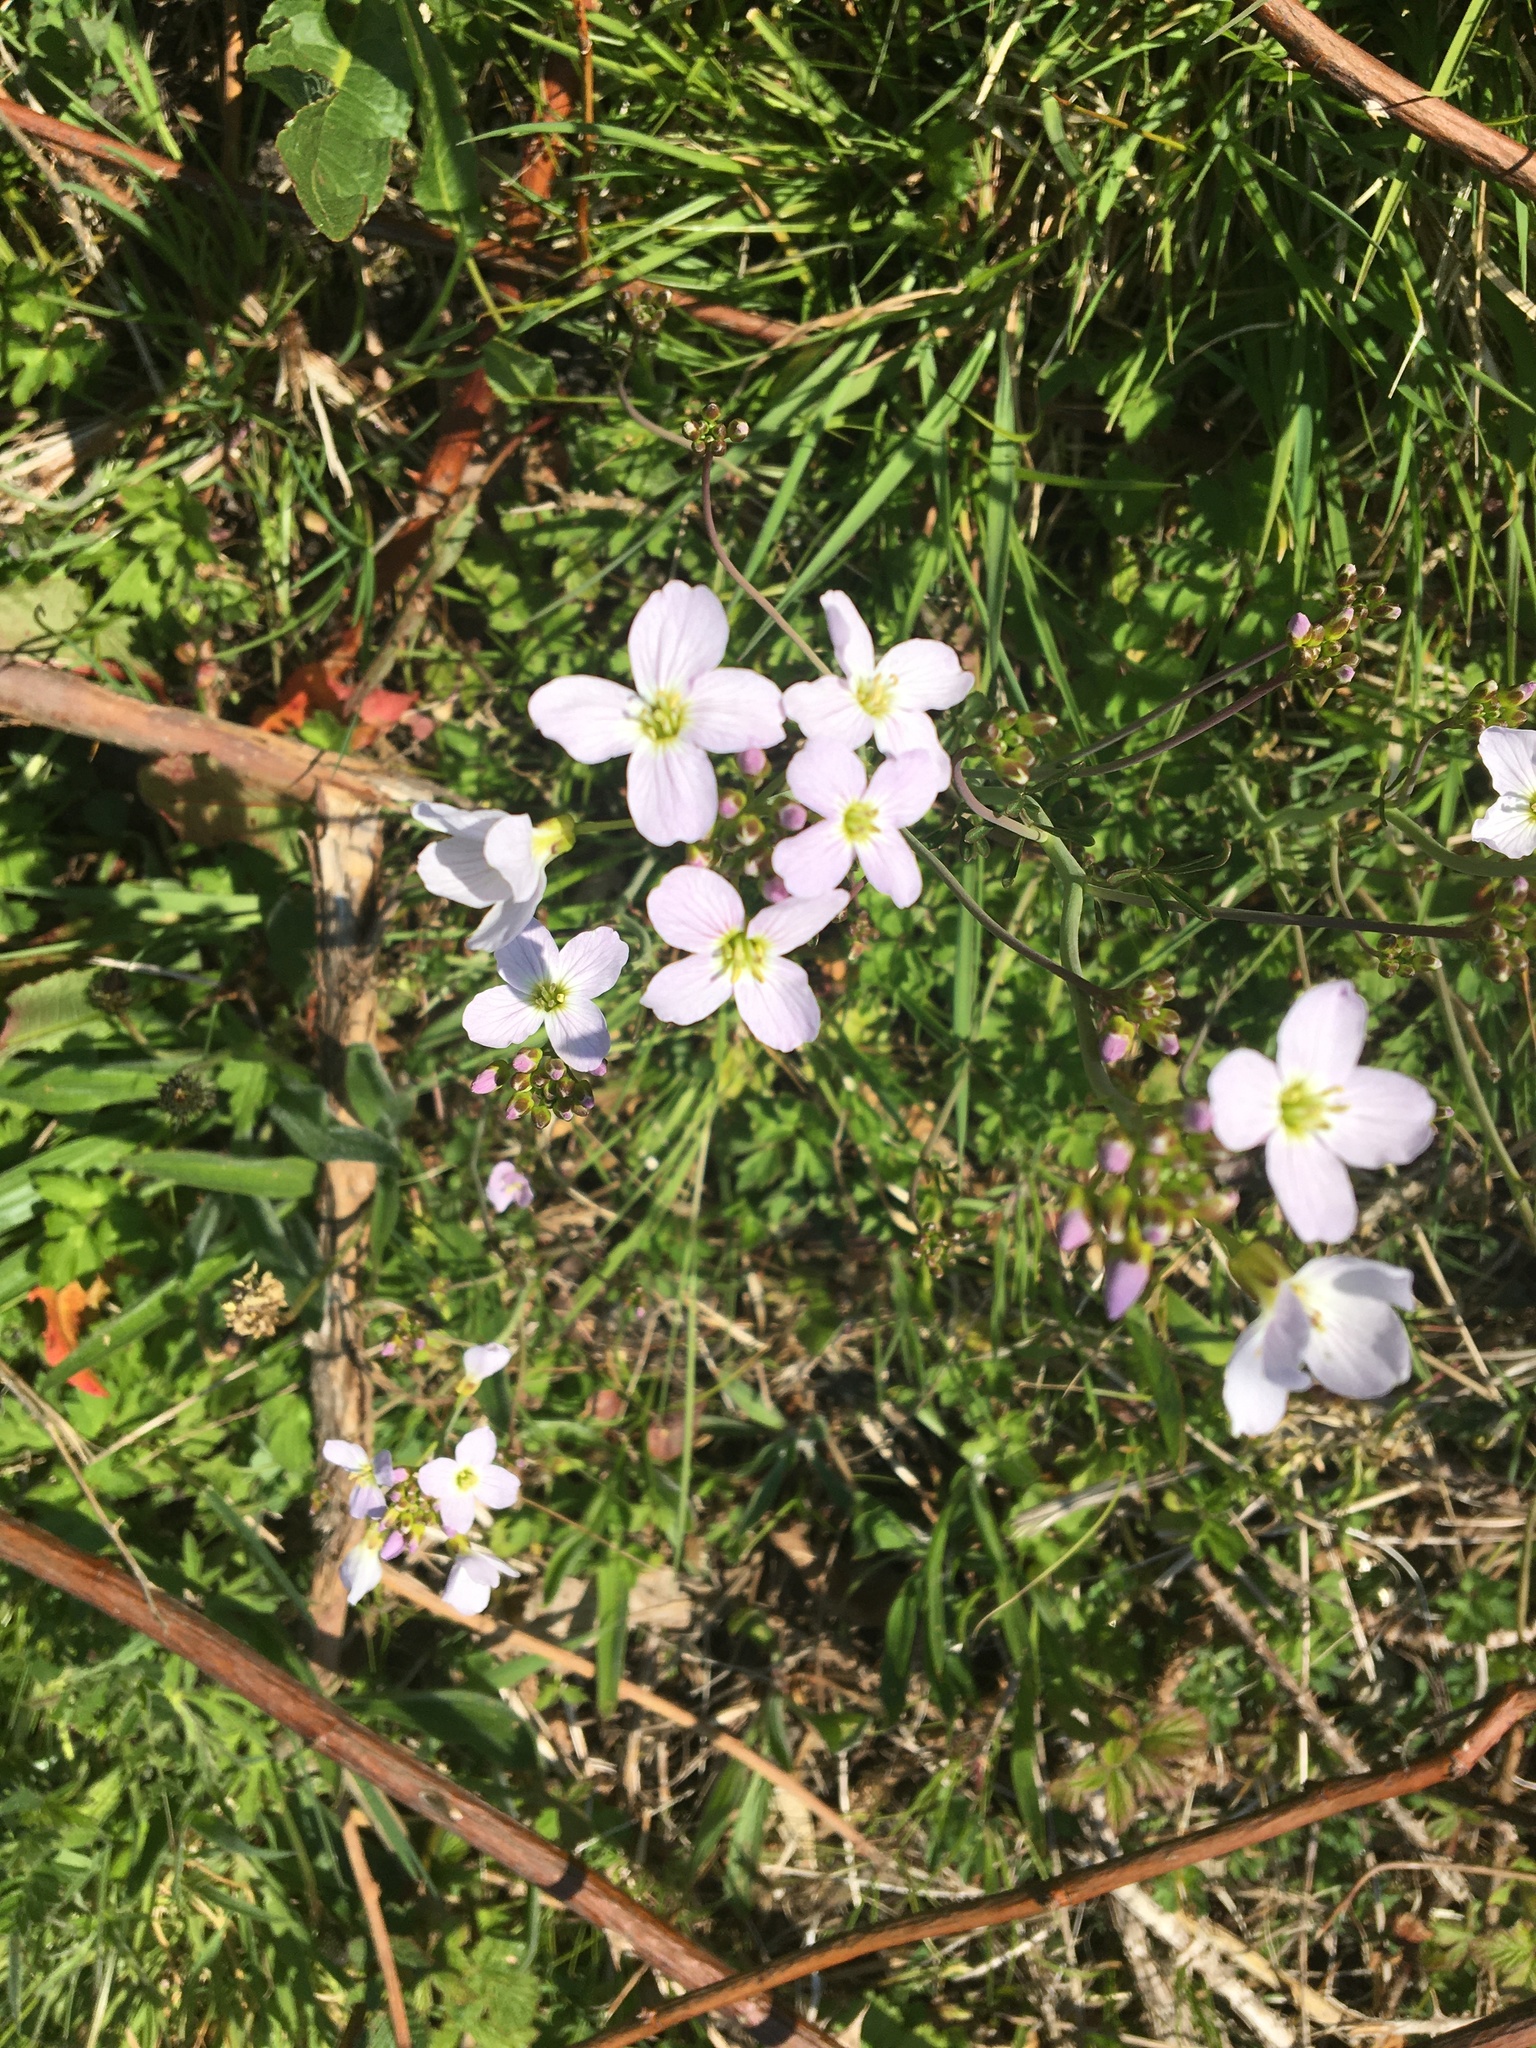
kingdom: Plantae
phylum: Tracheophyta
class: Magnoliopsida
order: Brassicales
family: Brassicaceae
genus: Cardamine
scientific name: Cardamine pratensis
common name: Cuckoo flower
